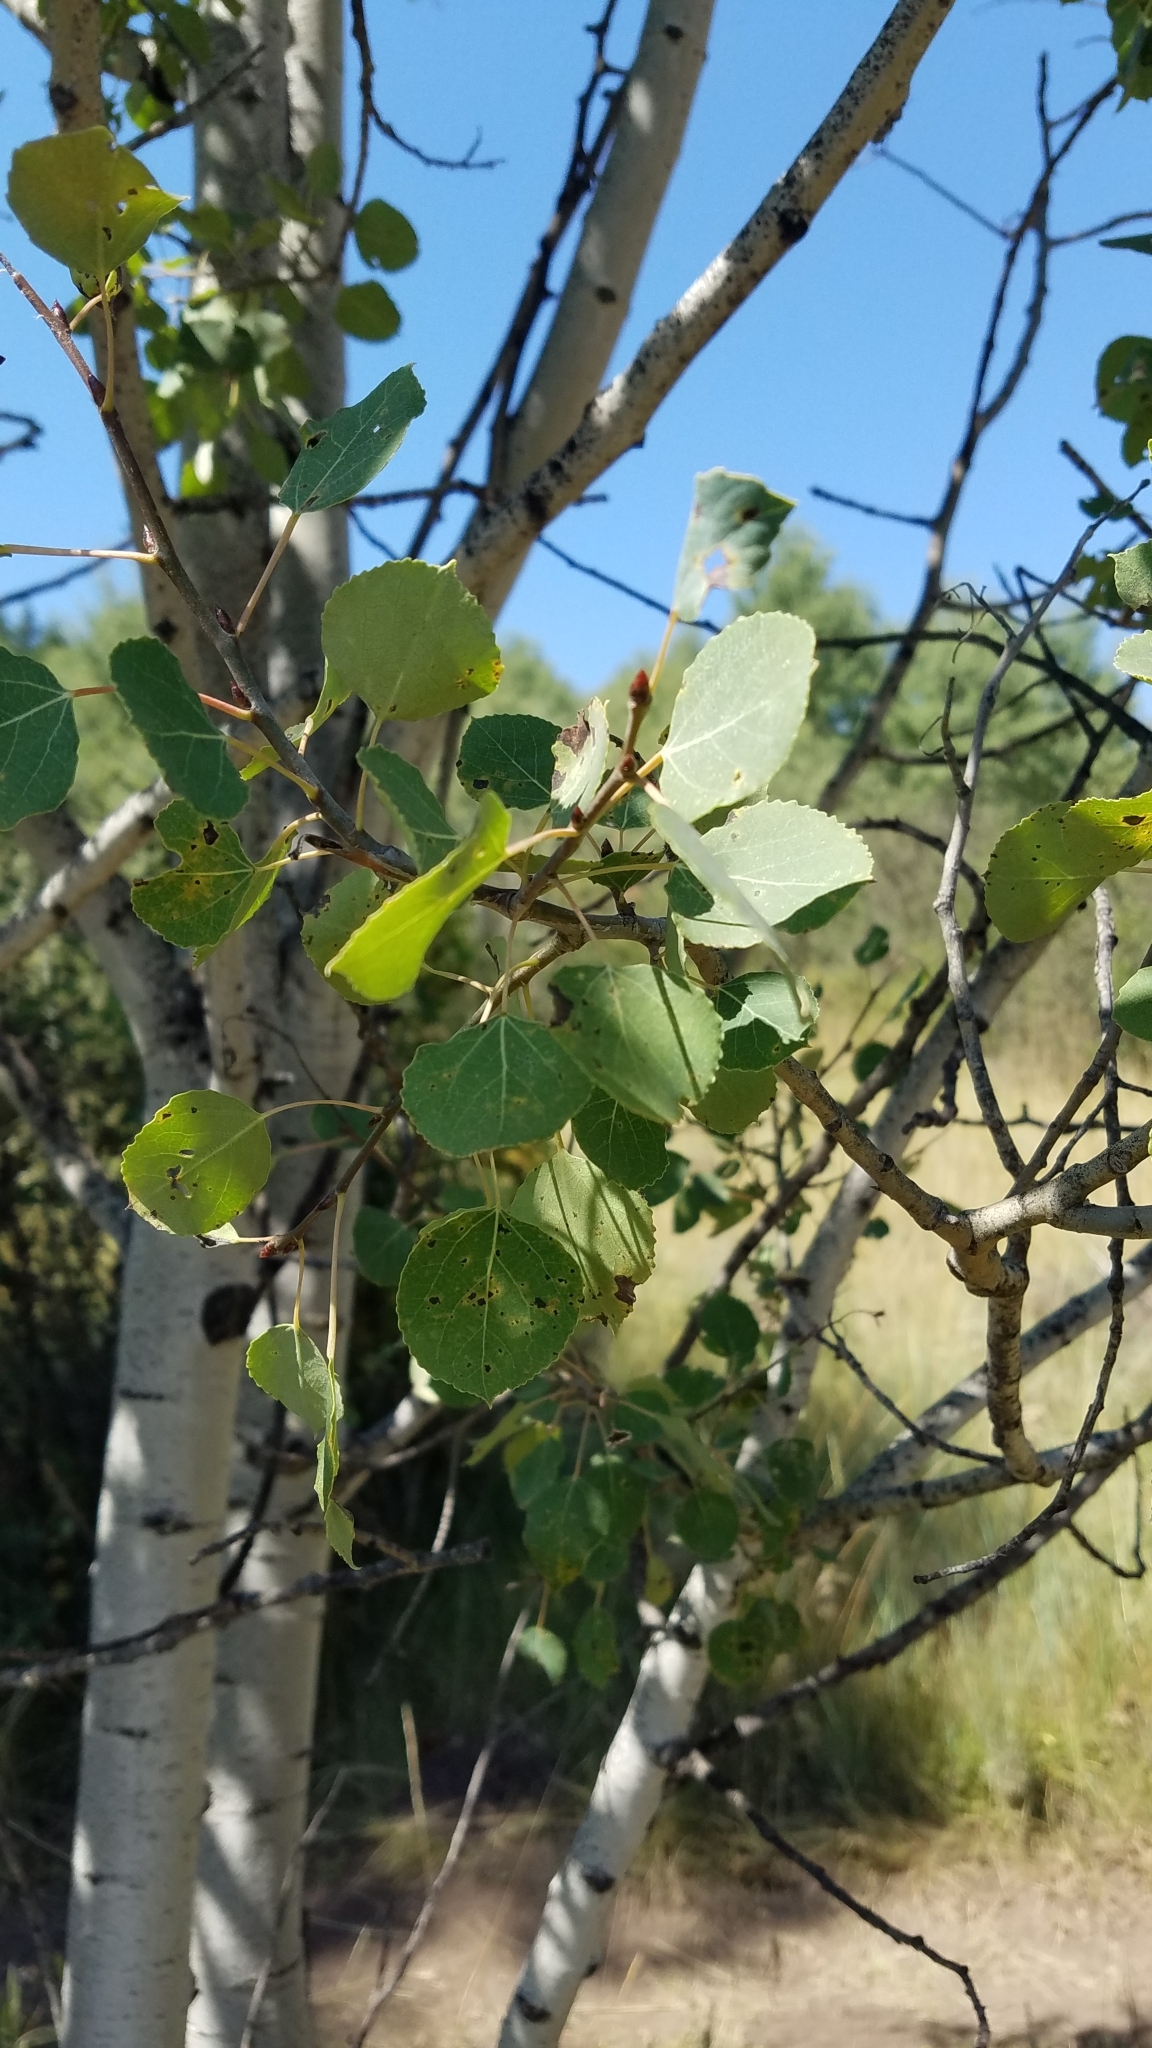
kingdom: Plantae
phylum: Tracheophyta
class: Magnoliopsida
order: Malpighiales
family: Salicaceae
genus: Populus
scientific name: Populus tremuloides
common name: Quaking aspen
